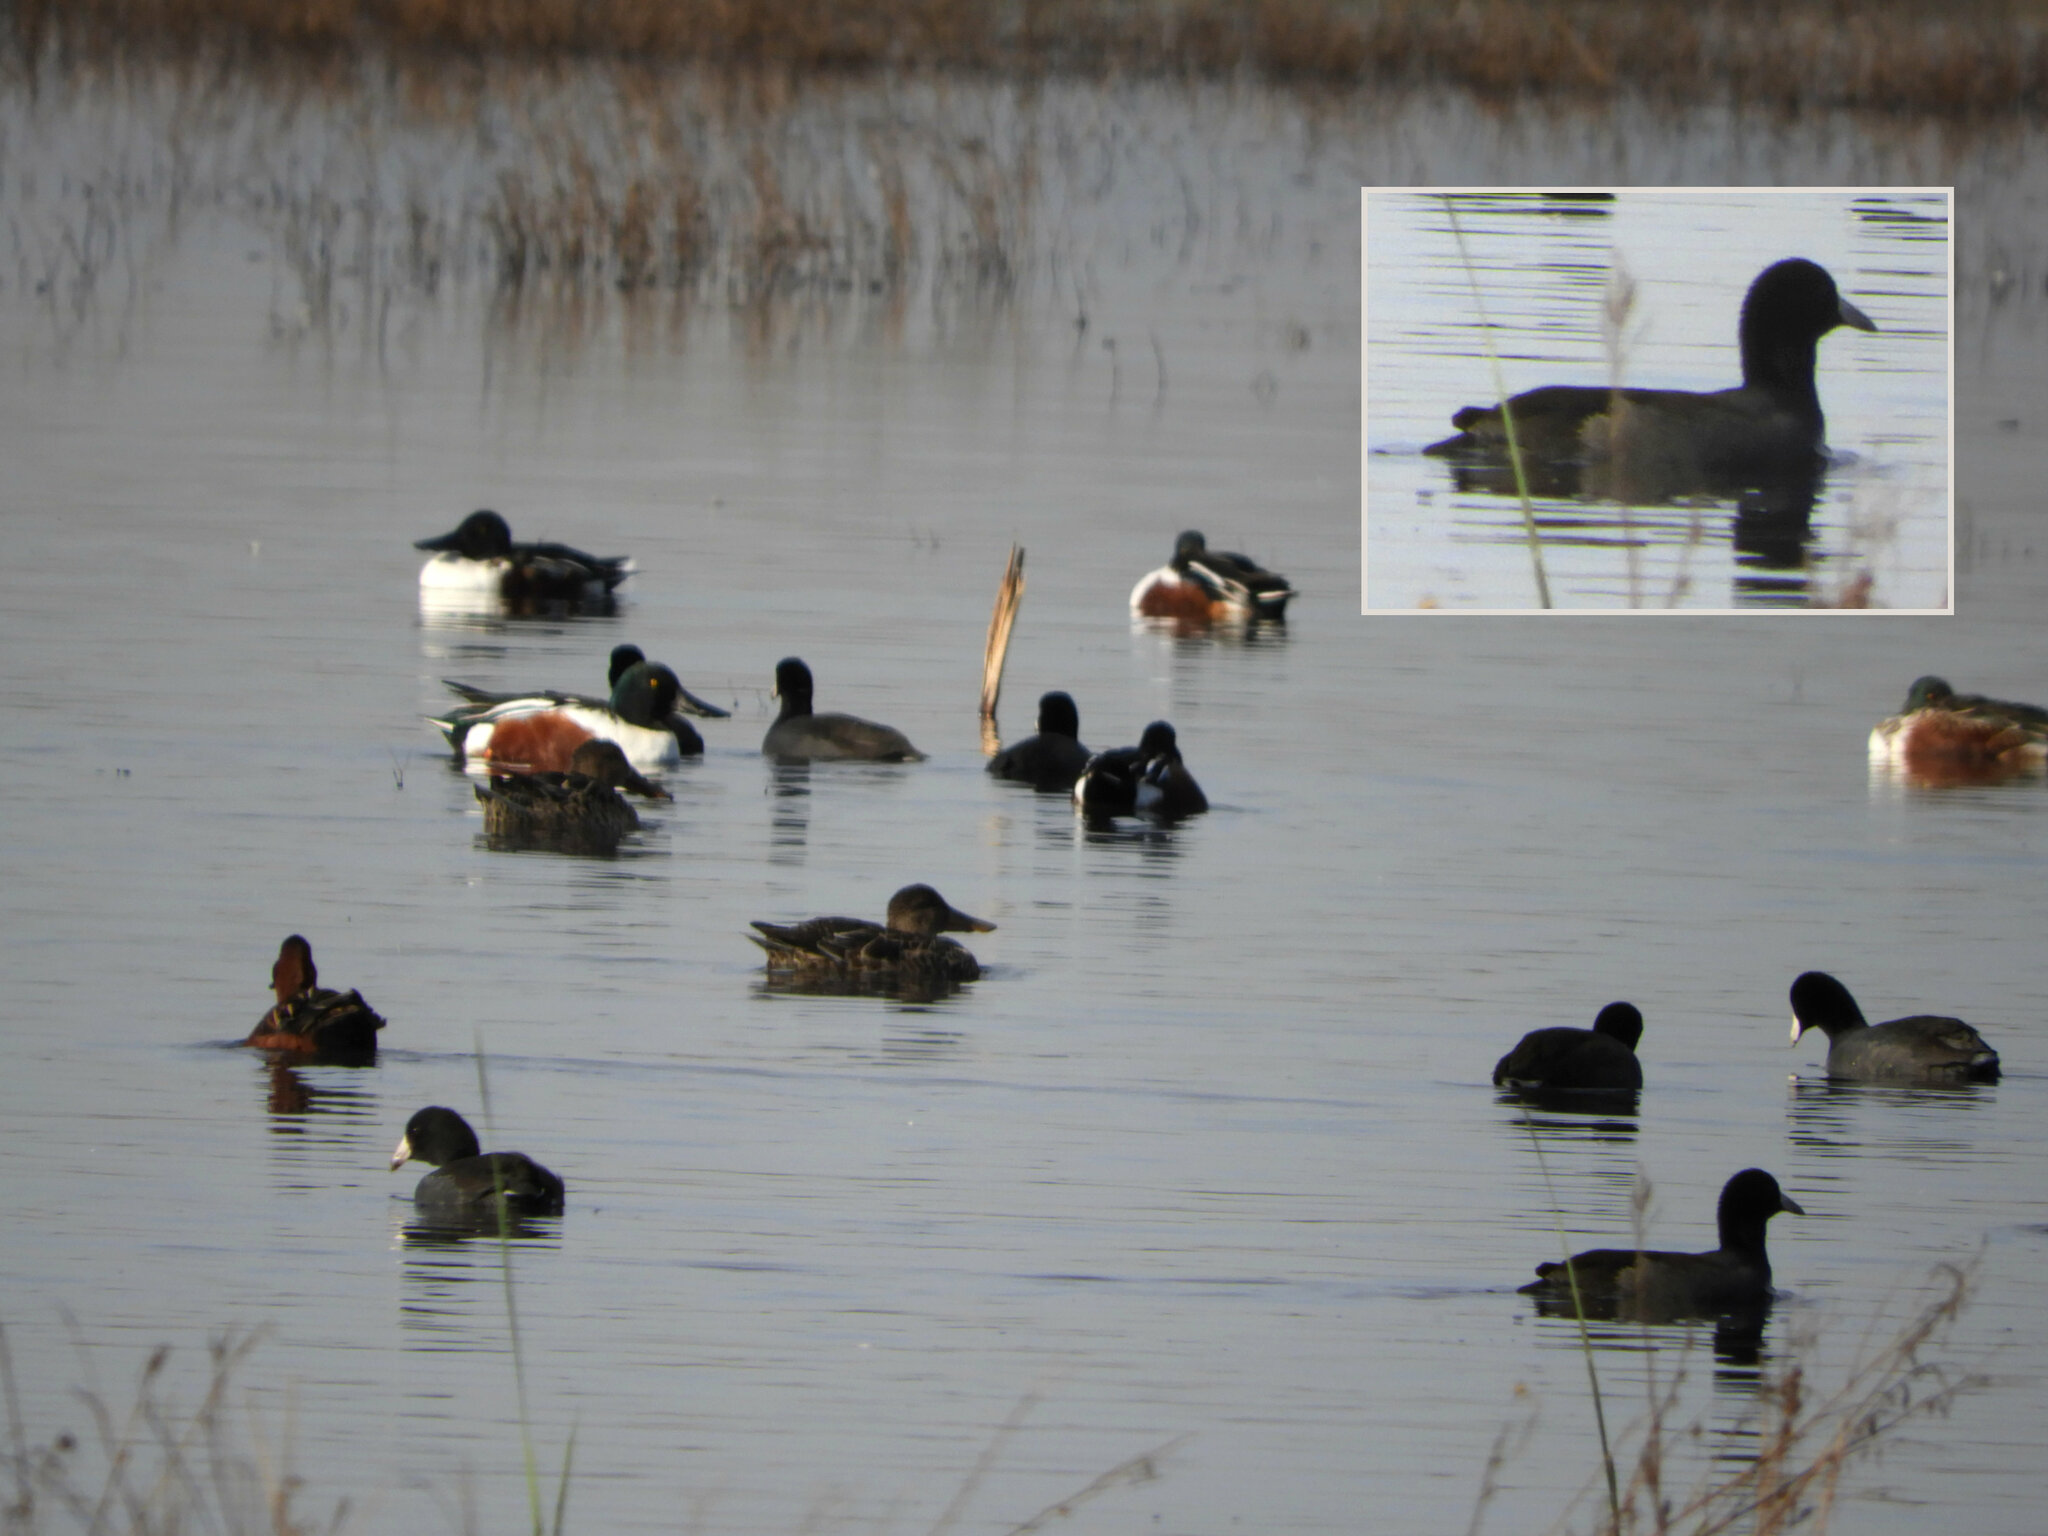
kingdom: Animalia
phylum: Chordata
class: Aves
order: Gruiformes
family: Rallidae
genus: Gallinula
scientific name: Gallinula chloropus
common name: Common moorhen
